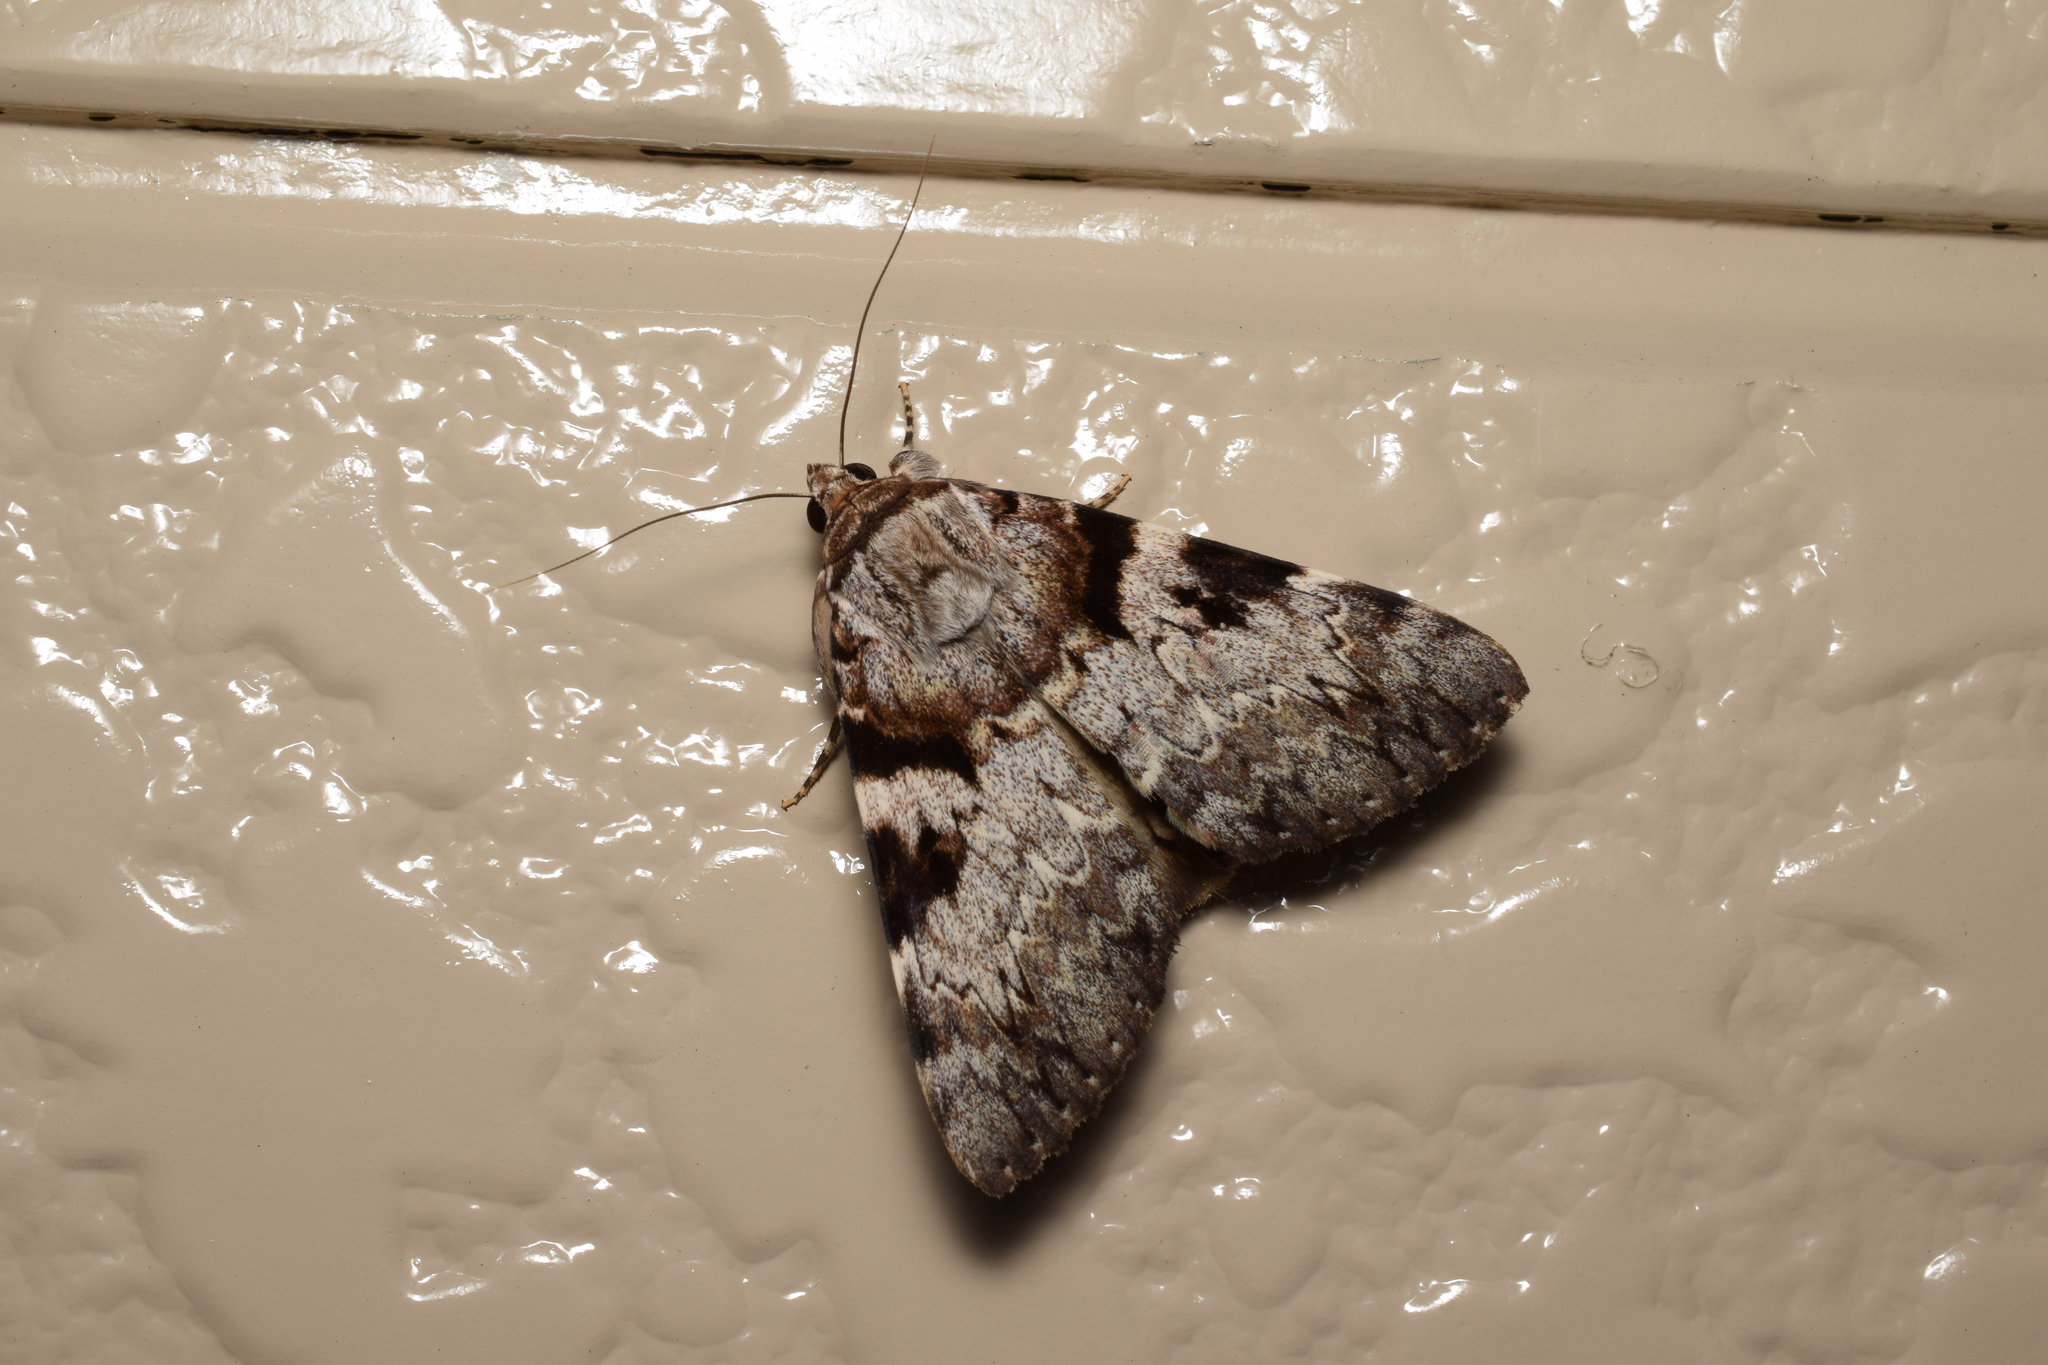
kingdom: Animalia
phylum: Arthropoda
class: Insecta
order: Lepidoptera
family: Erebidae
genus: Catocala
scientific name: Catocala intacta
